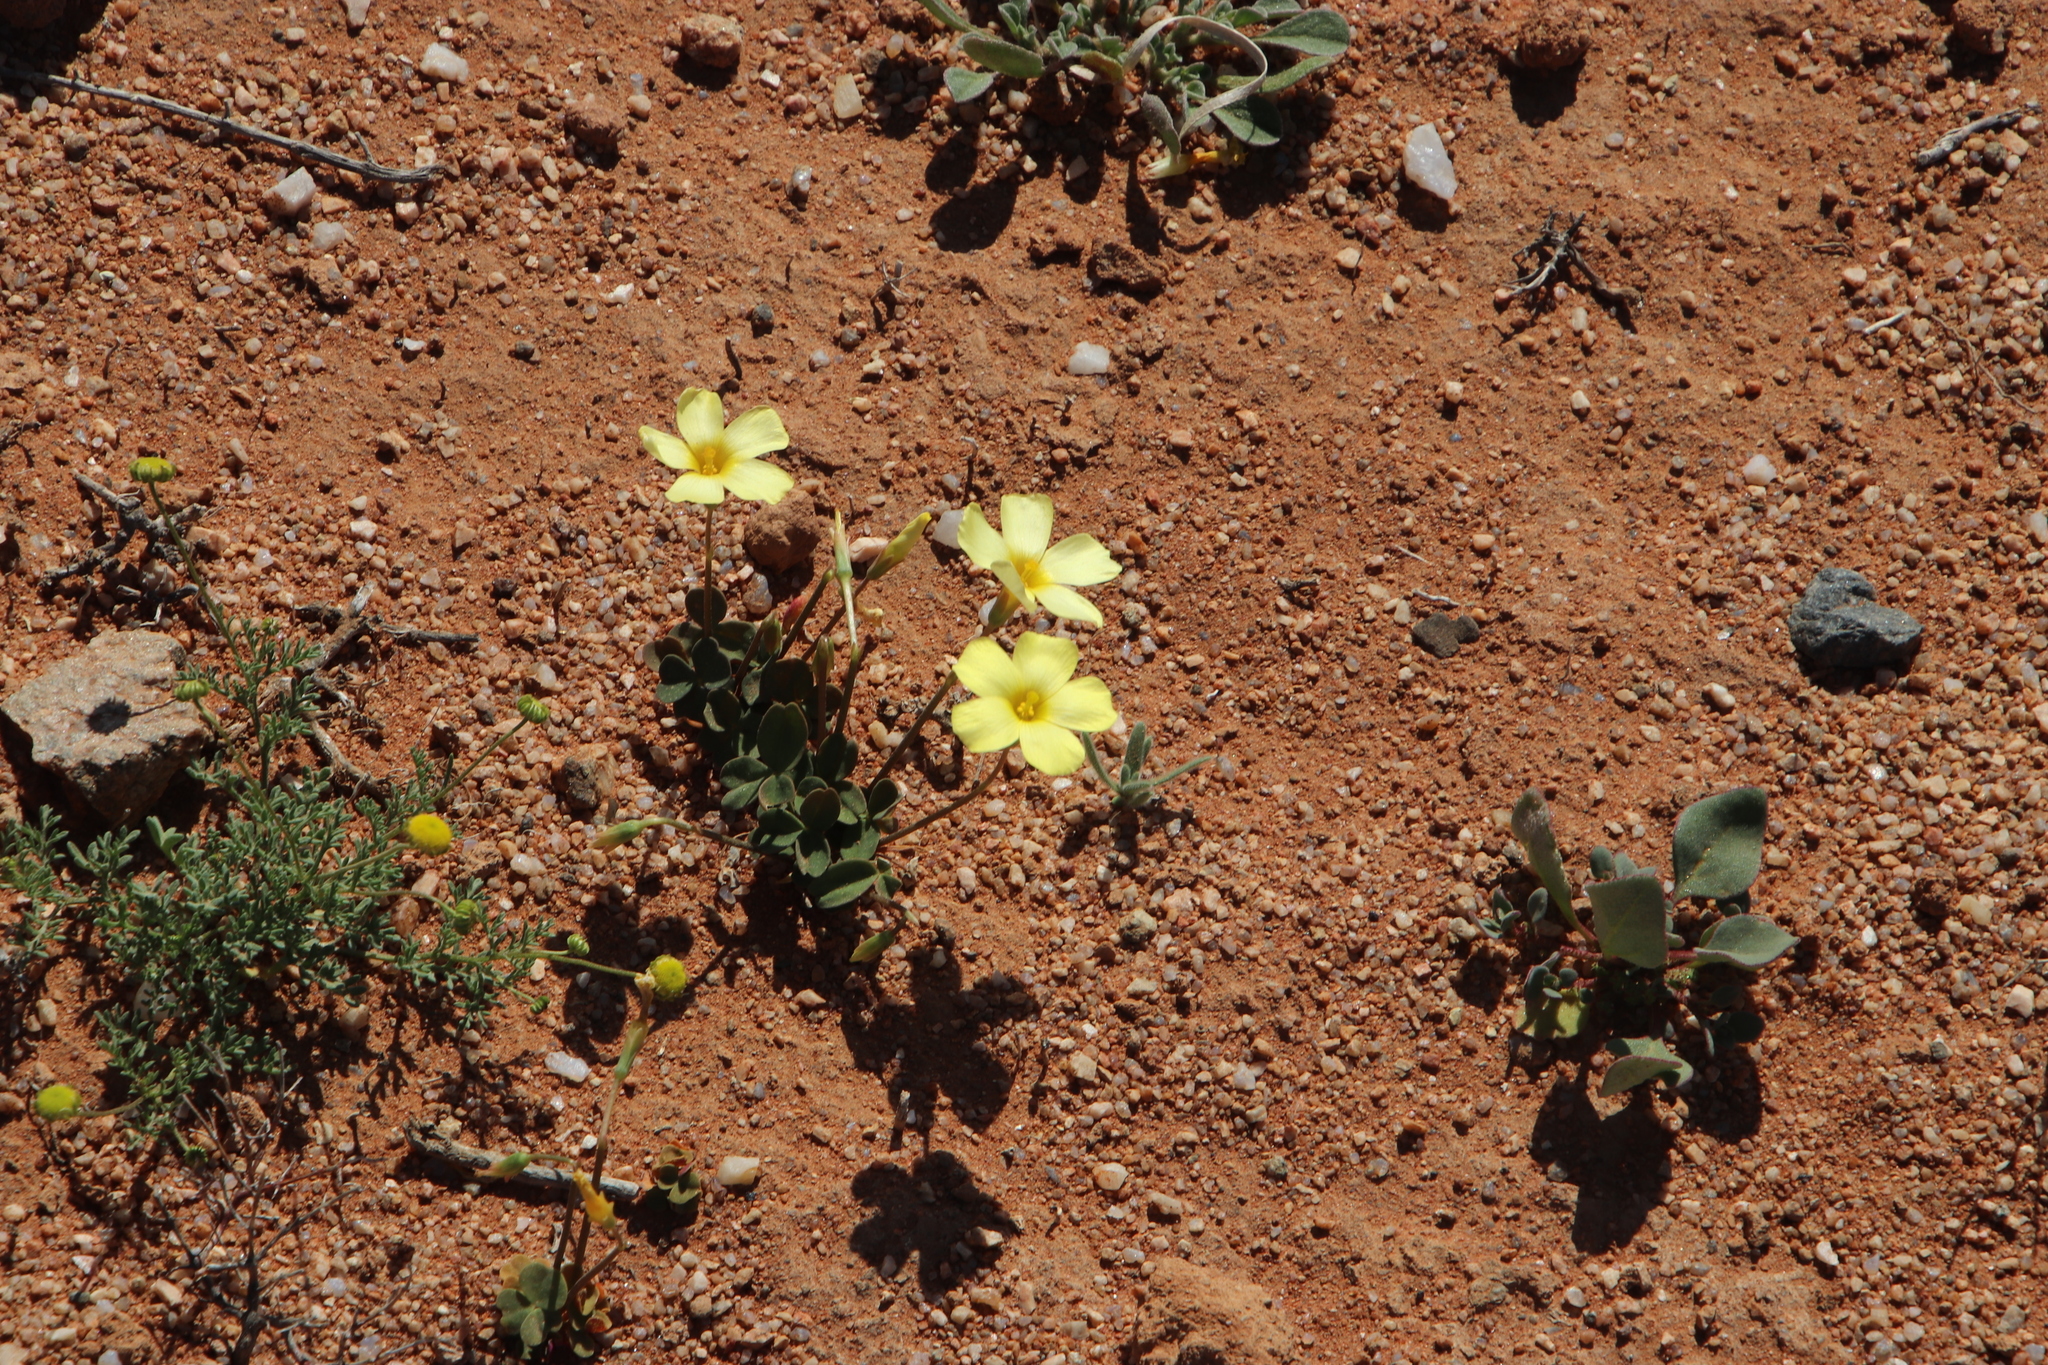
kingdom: Plantae
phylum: Tracheophyta
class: Magnoliopsida
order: Oxalidales
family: Oxalidaceae
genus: Oxalis
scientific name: Oxalis obtusa
